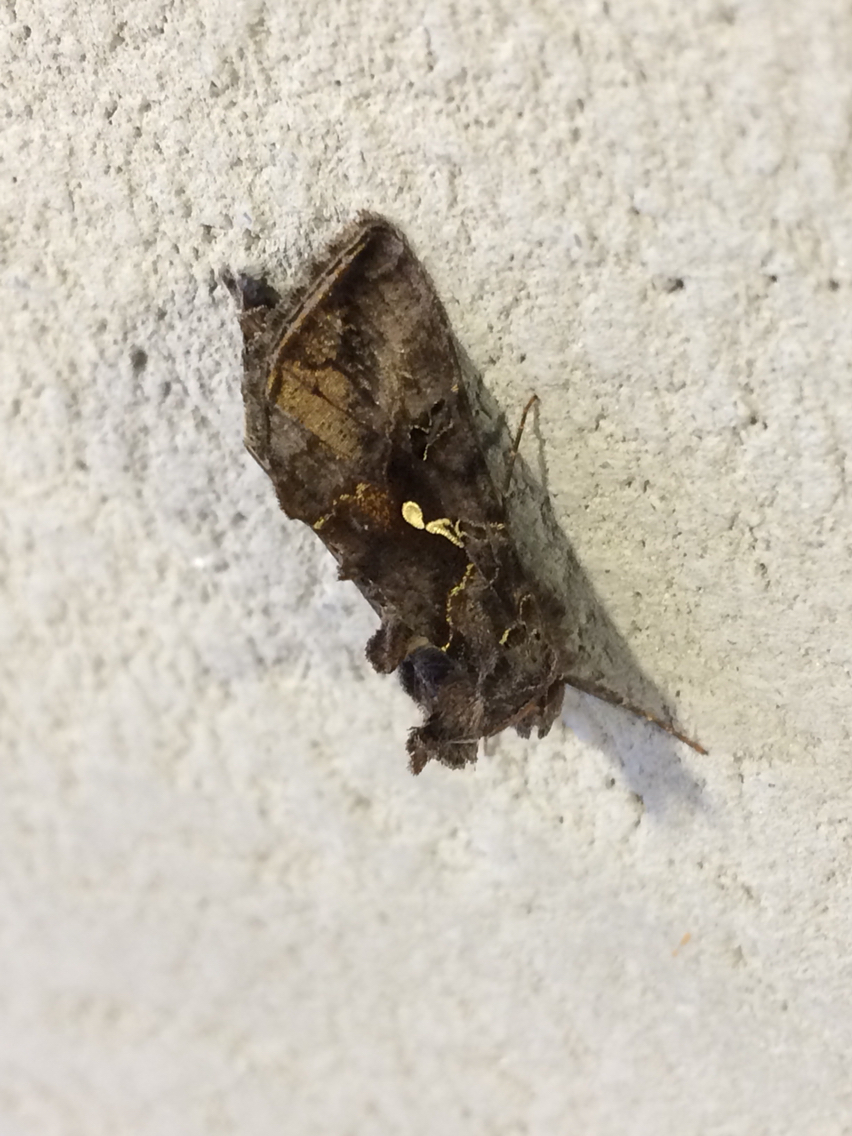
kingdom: Animalia
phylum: Arthropoda
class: Insecta
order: Lepidoptera
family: Noctuidae
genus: Autographa
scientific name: Autographa precationis
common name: Common looper moth
